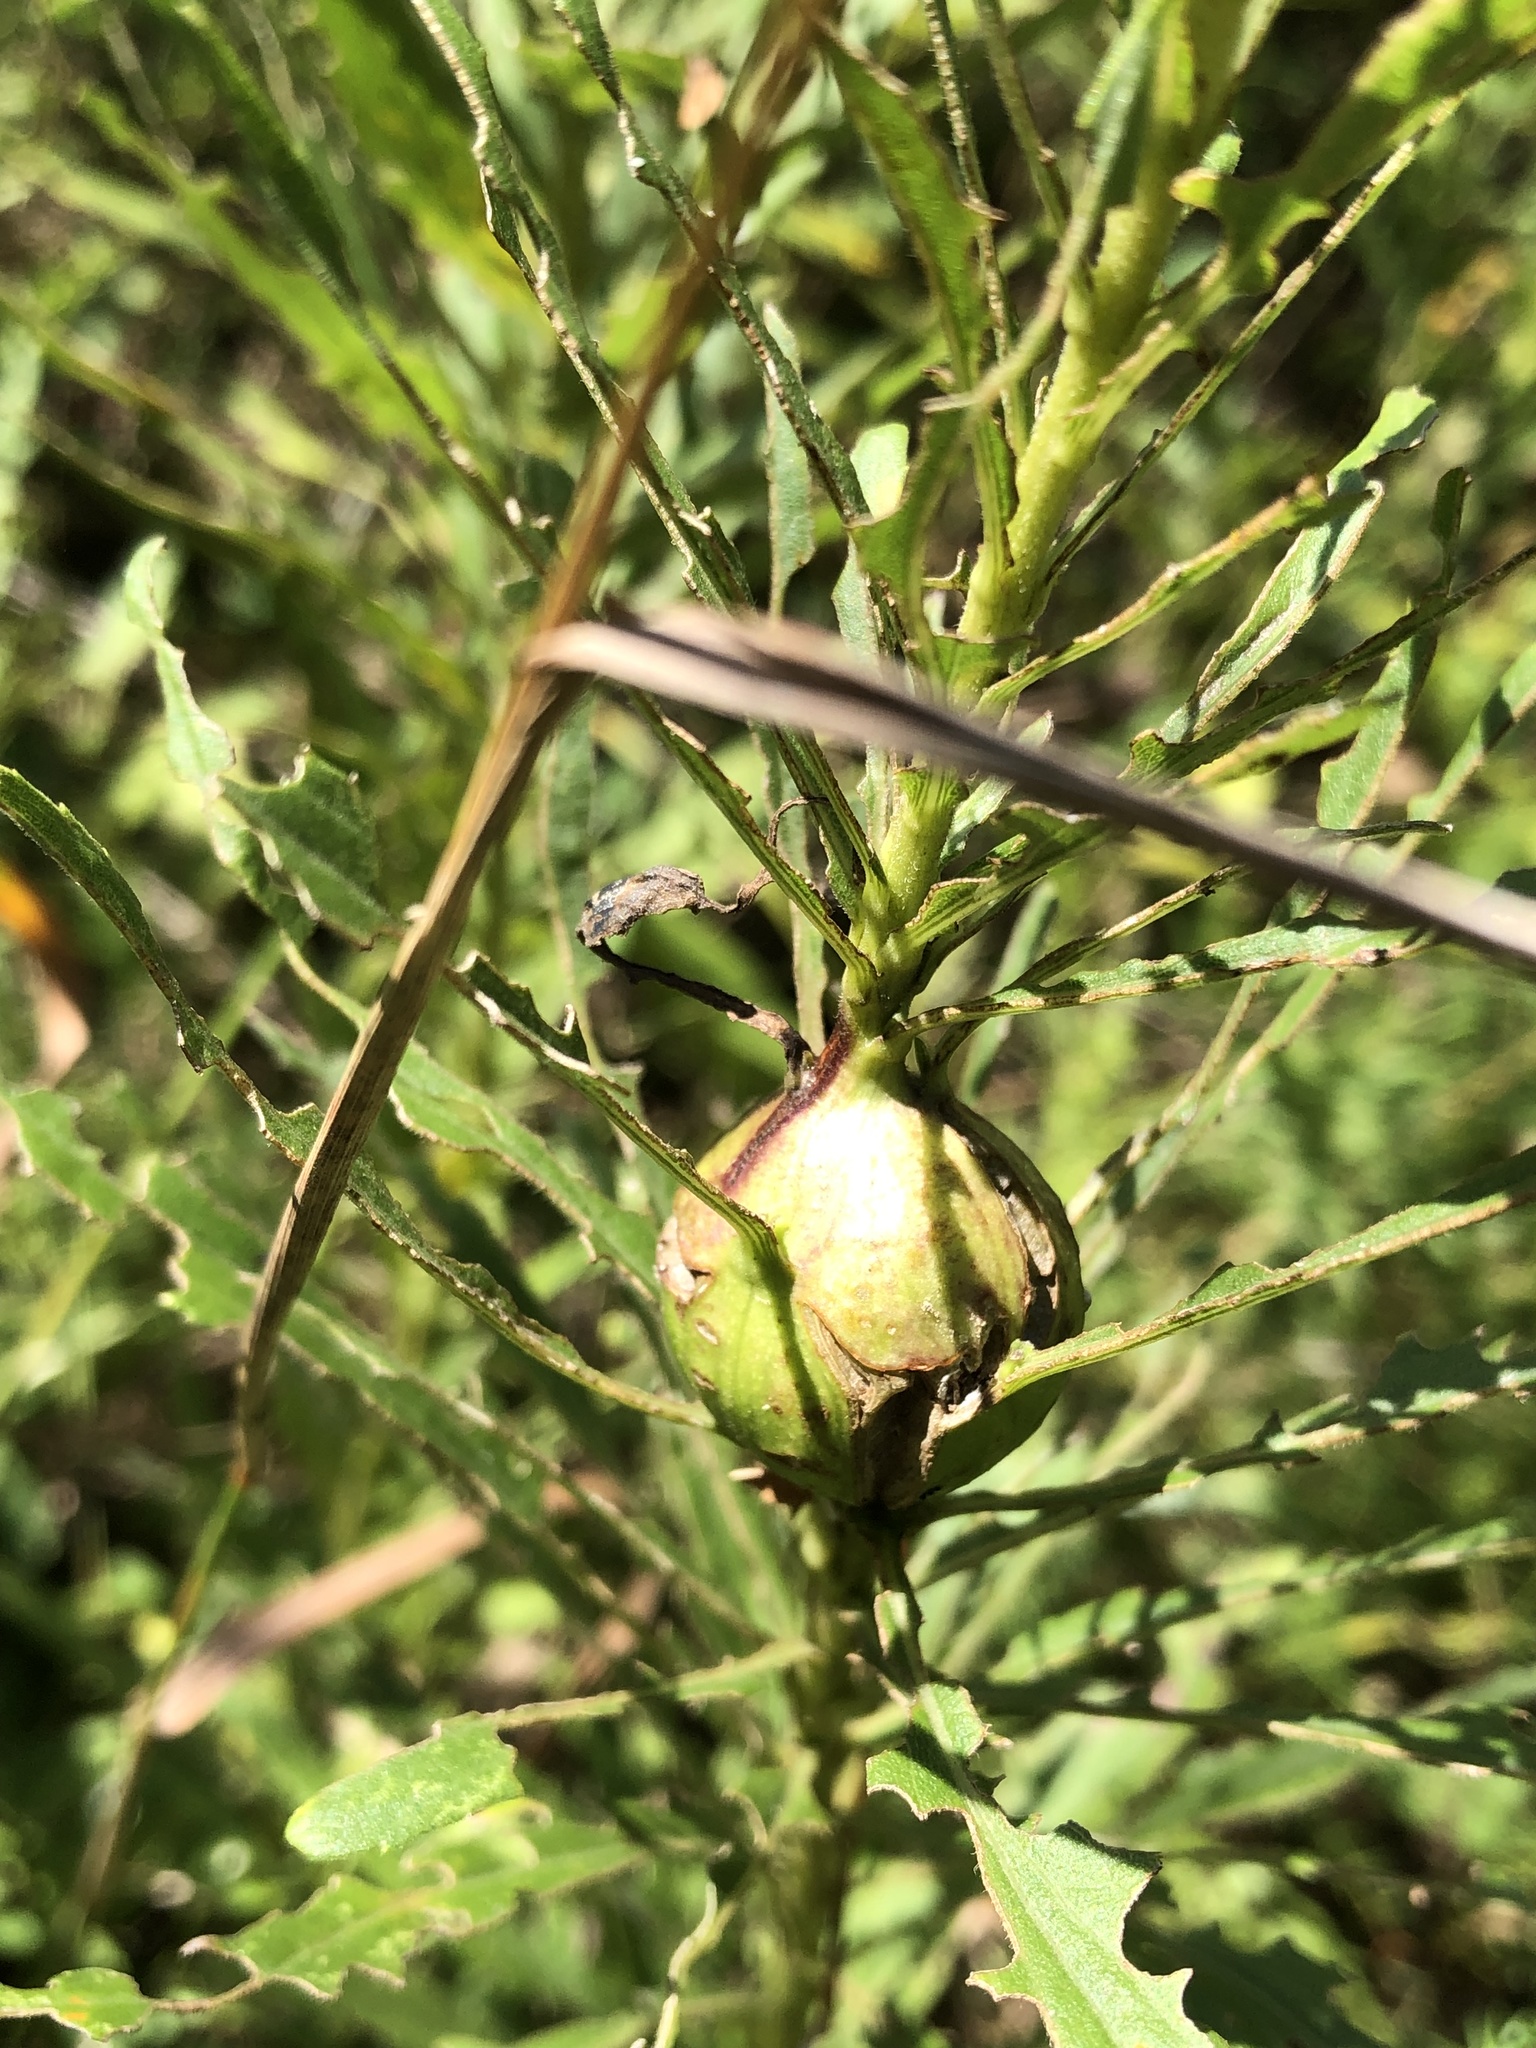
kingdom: Animalia
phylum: Arthropoda
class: Insecta
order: Diptera
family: Tephritidae
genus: Eurosta
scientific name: Eurosta solidaginis
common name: Goldenrod gall fly
